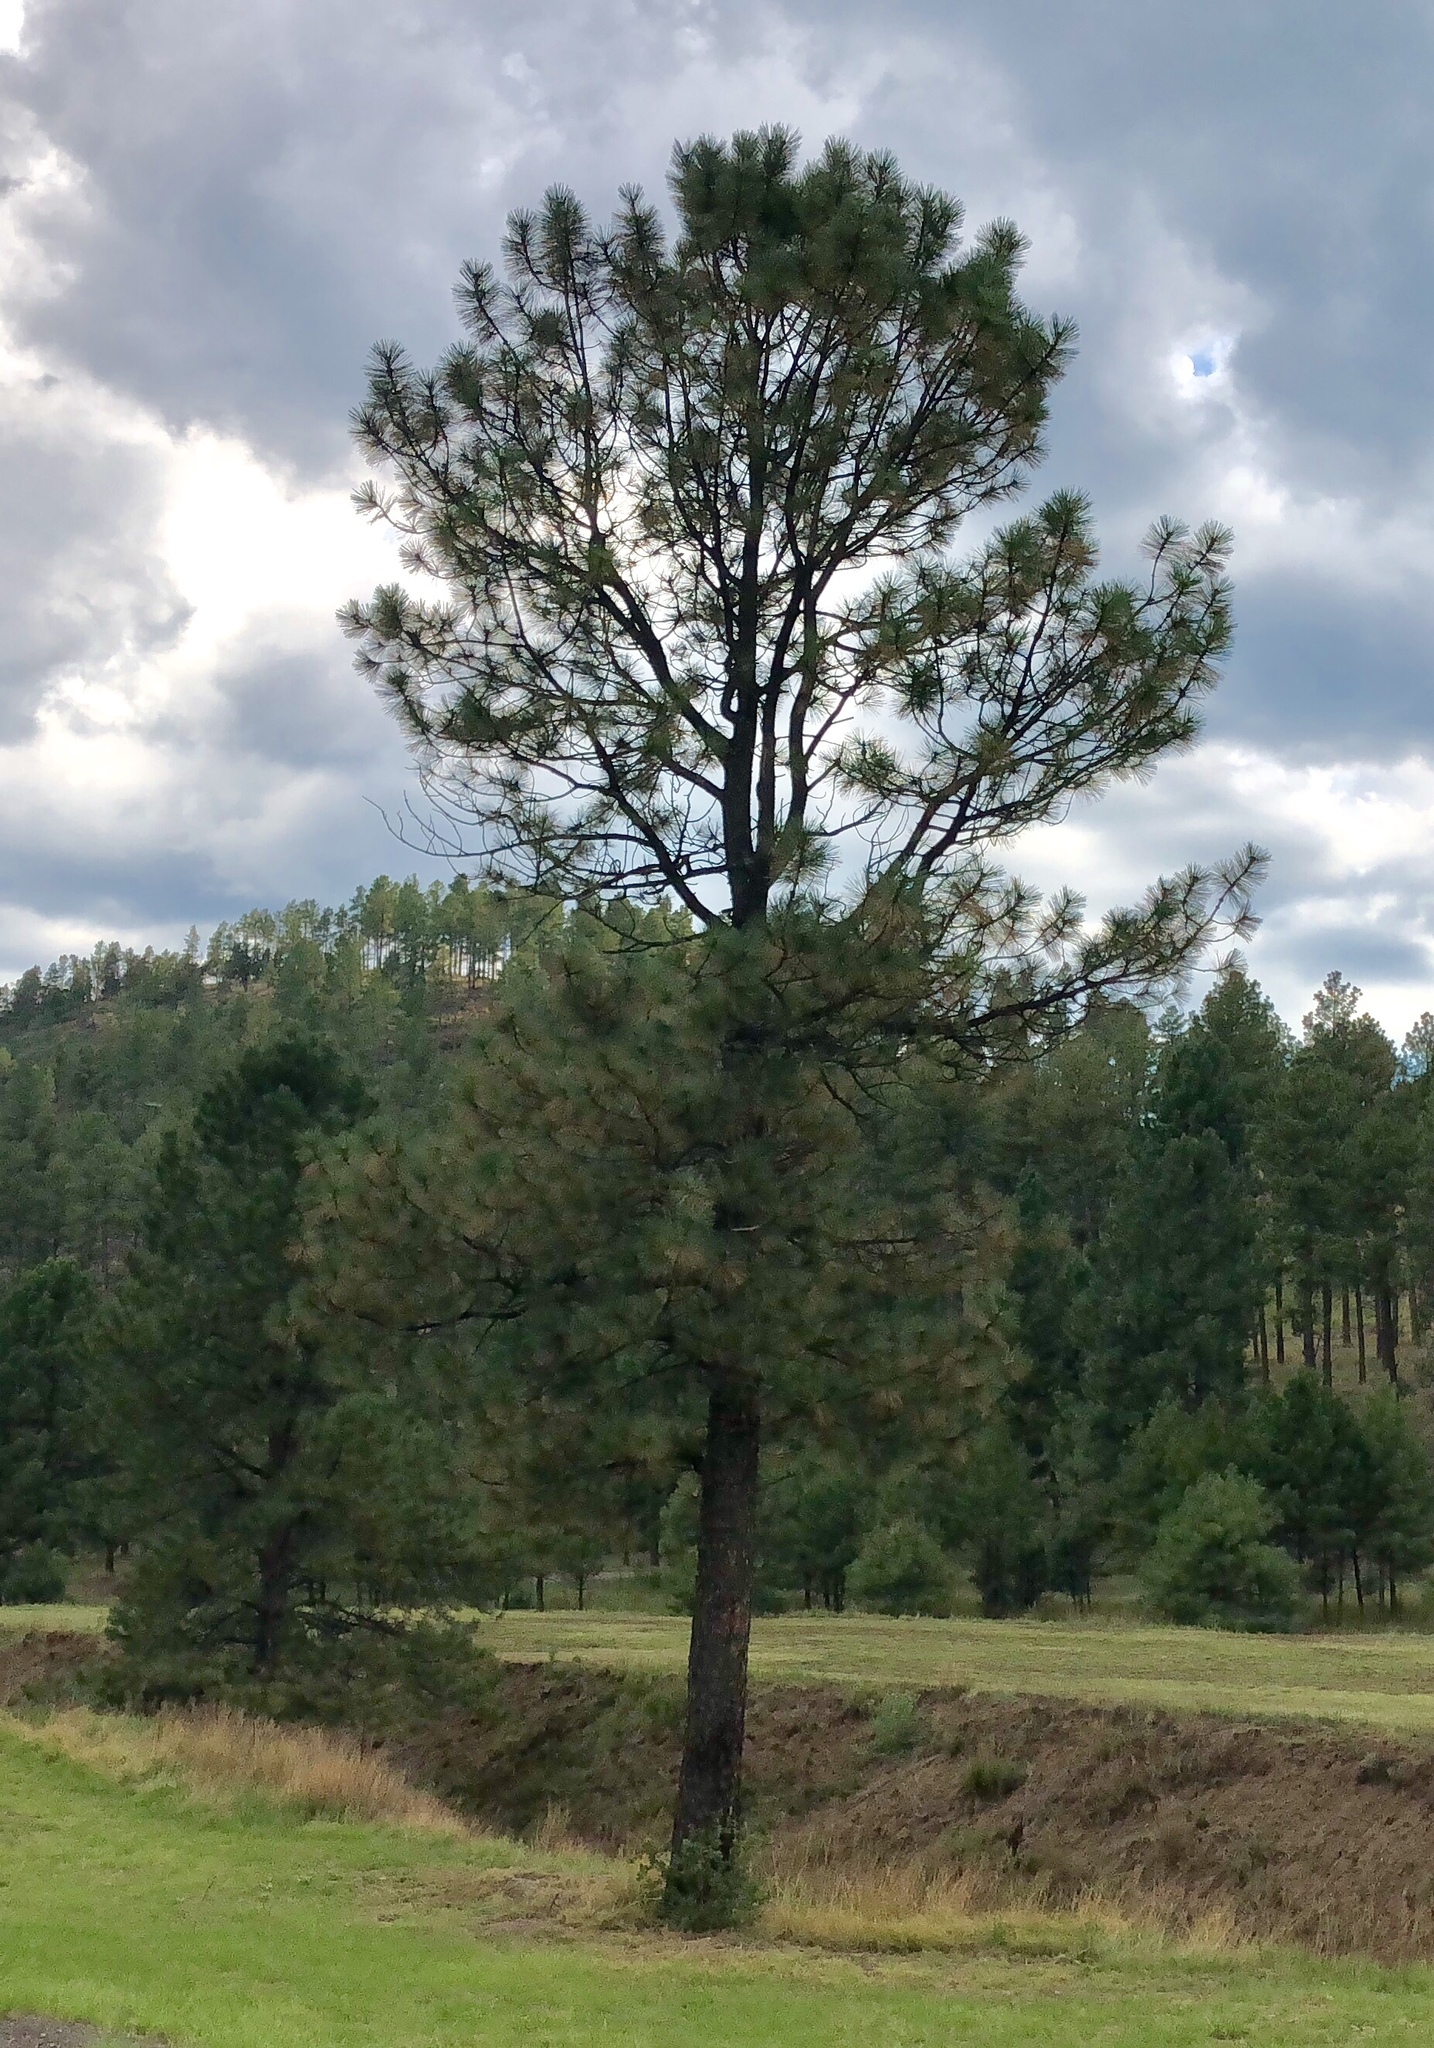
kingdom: Plantae
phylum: Tracheophyta
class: Pinopsida
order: Pinales
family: Pinaceae
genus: Pinus
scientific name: Pinus ponderosa
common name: Western yellow-pine
